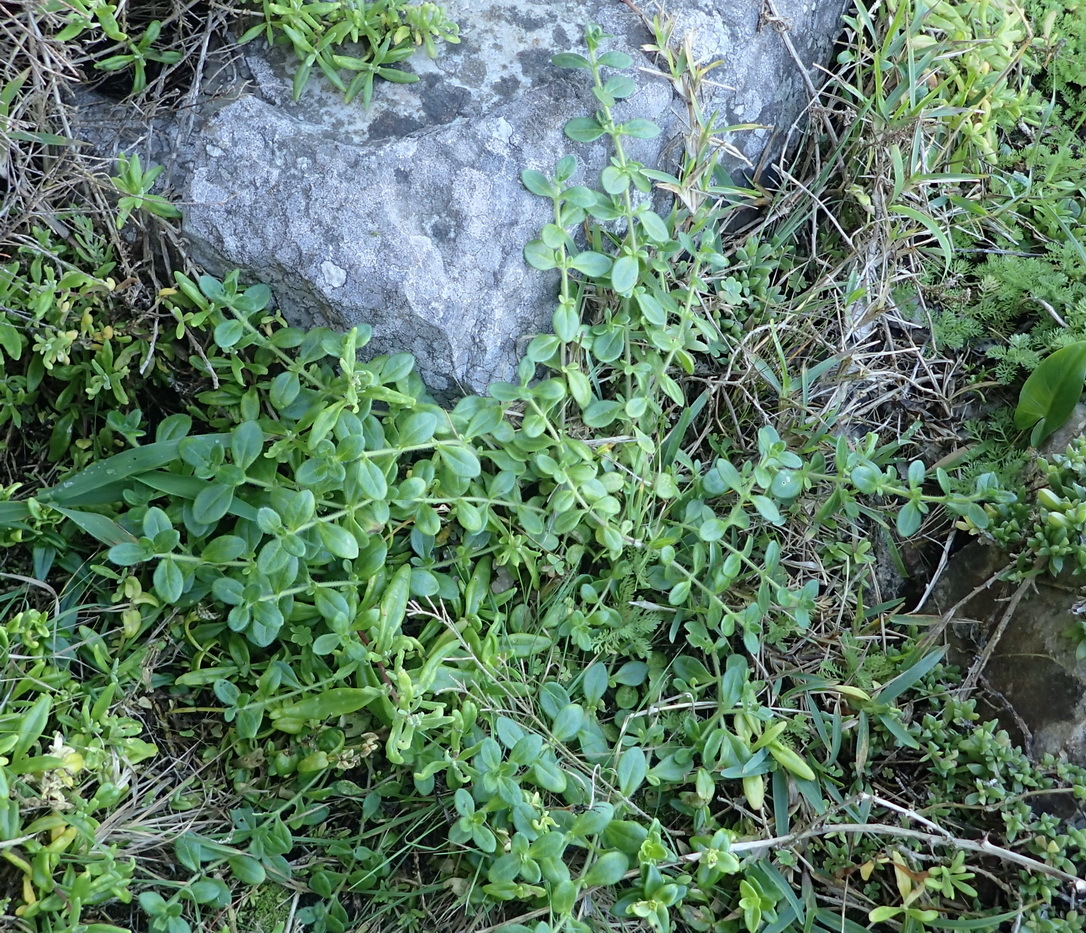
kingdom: Plantae
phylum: Tracheophyta
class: Magnoliopsida
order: Caryophyllales
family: Caryophyllaceae
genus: Silene
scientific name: Silene crassifolia
